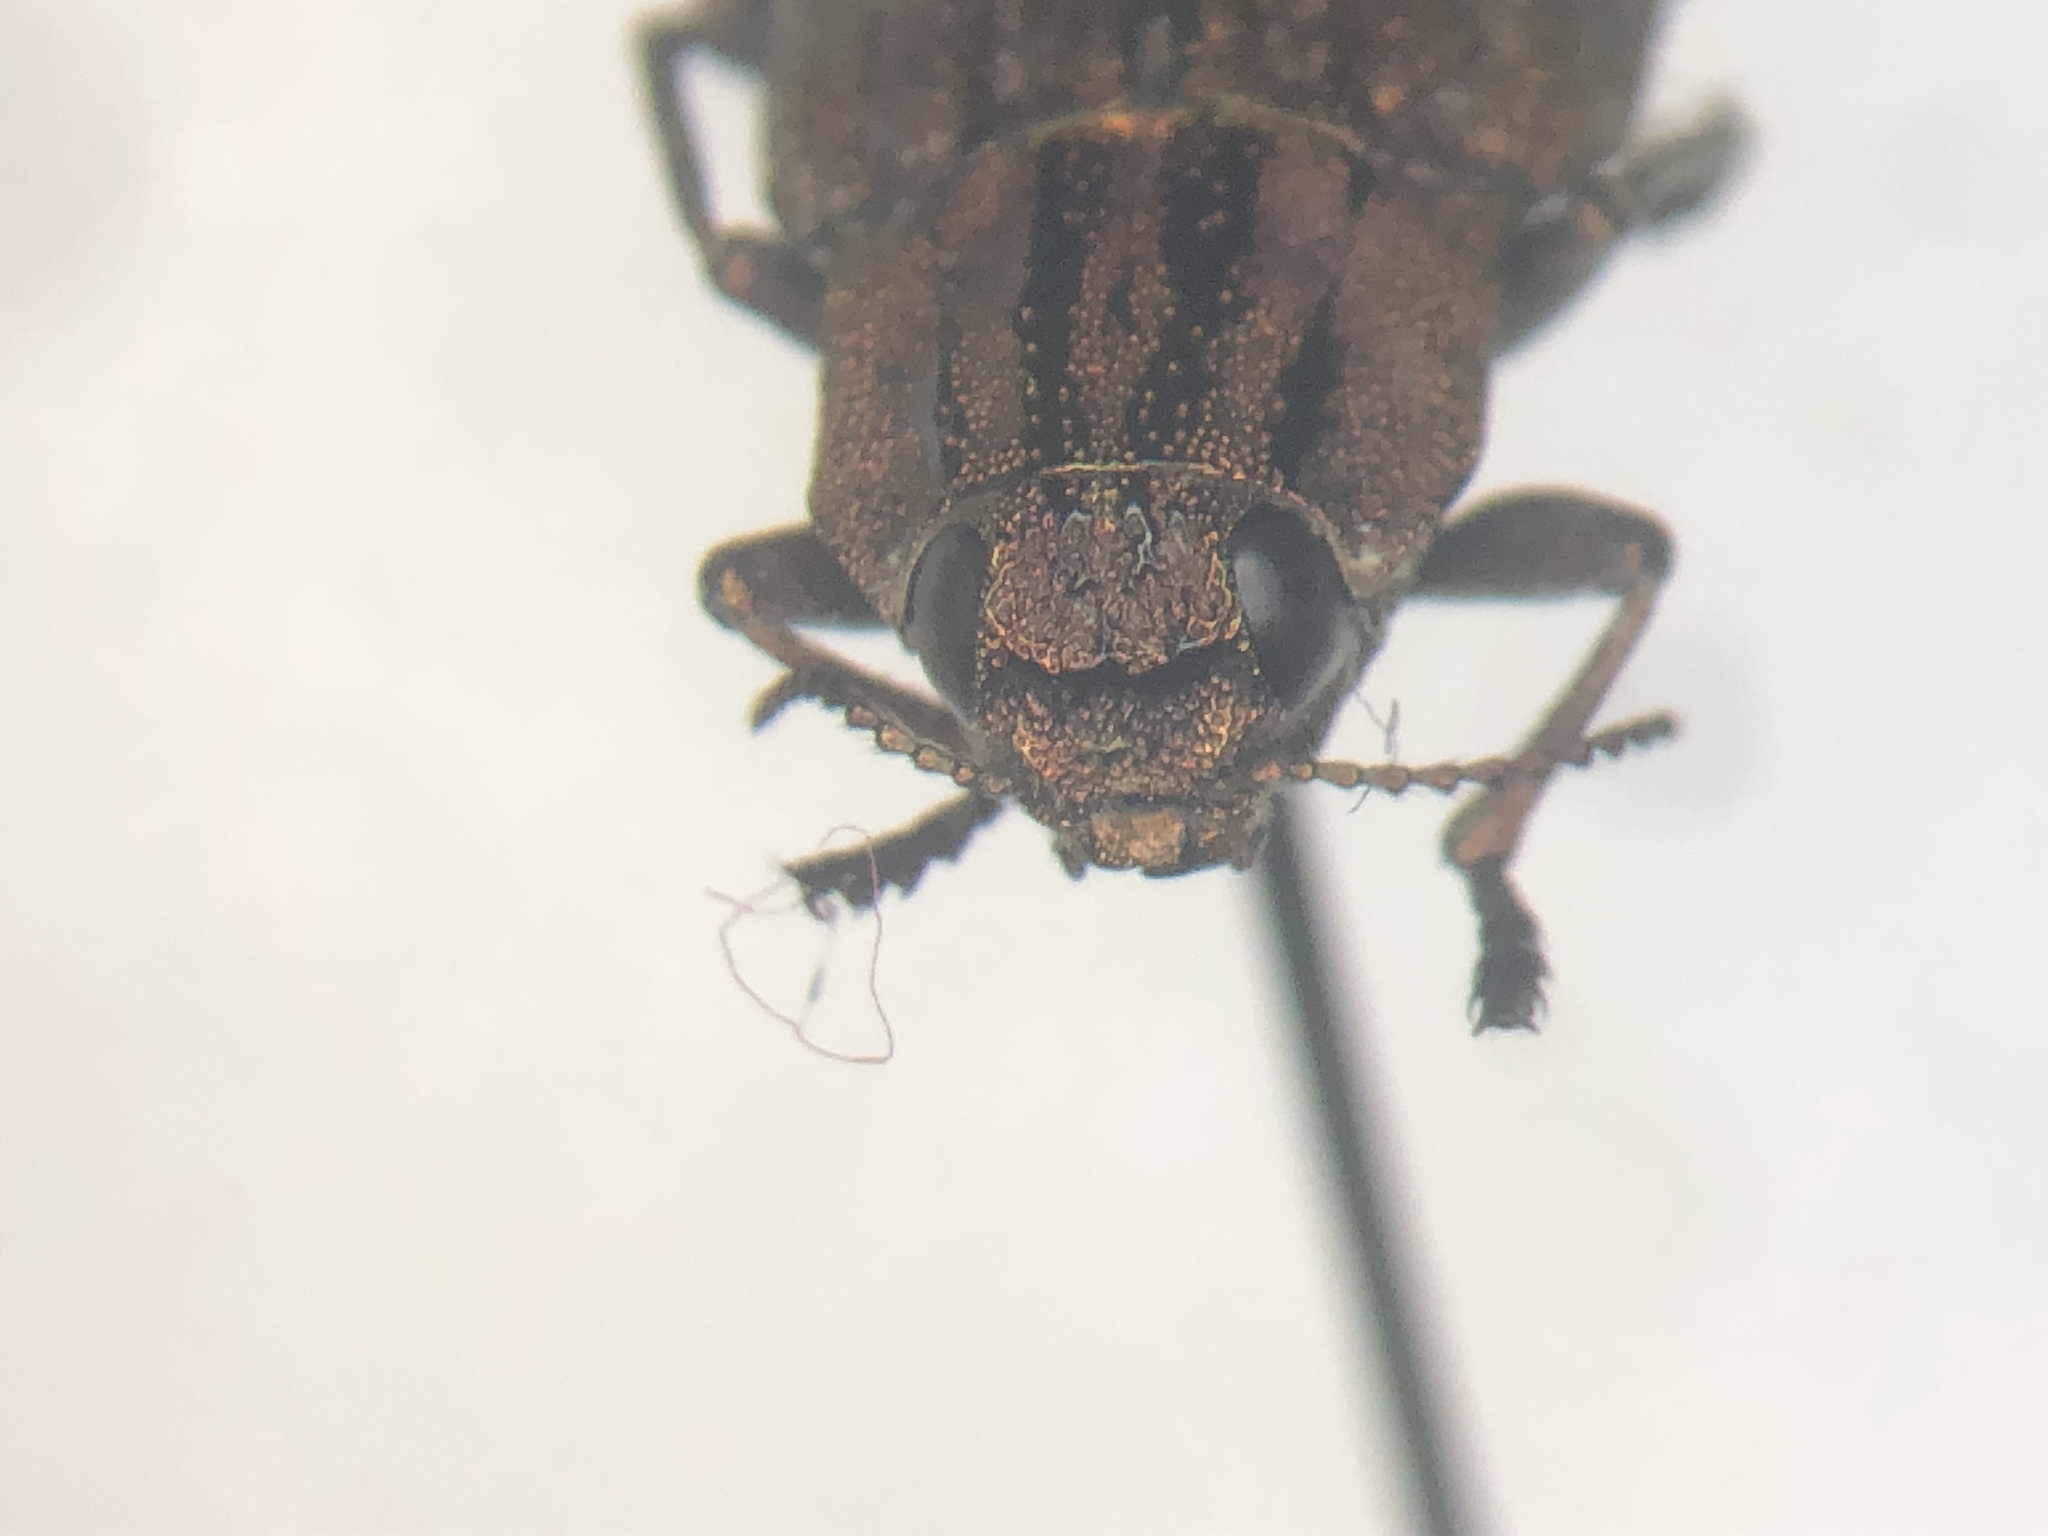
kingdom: Animalia
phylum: Arthropoda
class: Insecta
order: Coleoptera
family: Buprestidae
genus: Dicerca
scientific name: Dicerca punctulata
